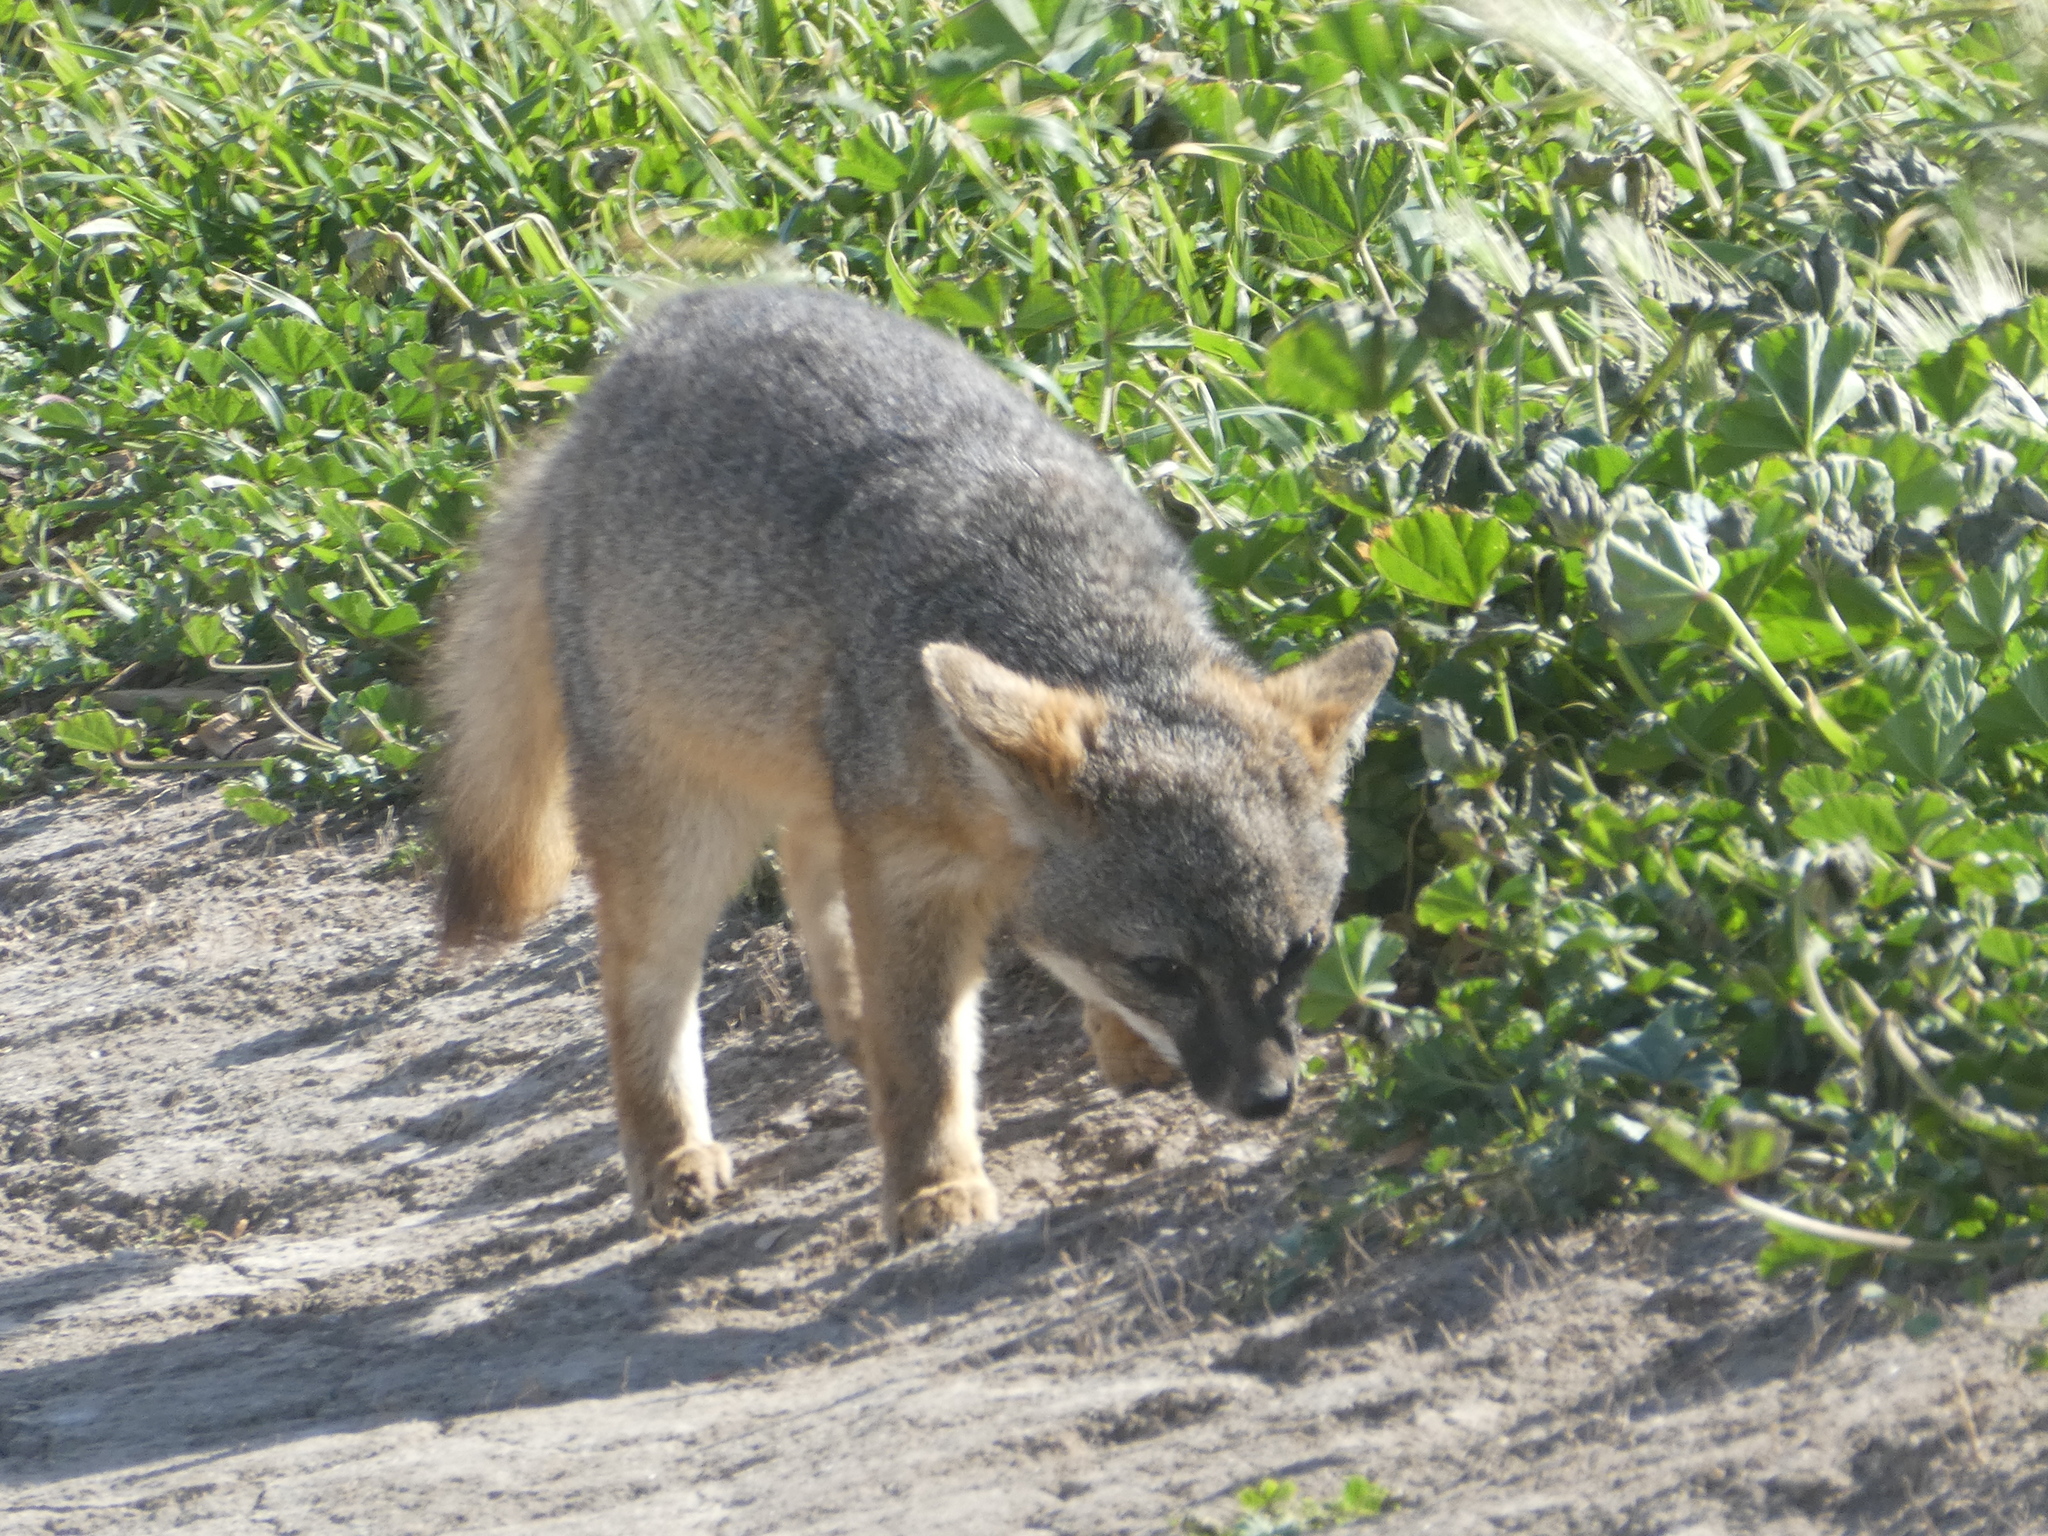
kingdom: Animalia
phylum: Chordata
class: Mammalia
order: Carnivora
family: Canidae
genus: Urocyon
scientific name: Urocyon littoralis
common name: Island gray fox
